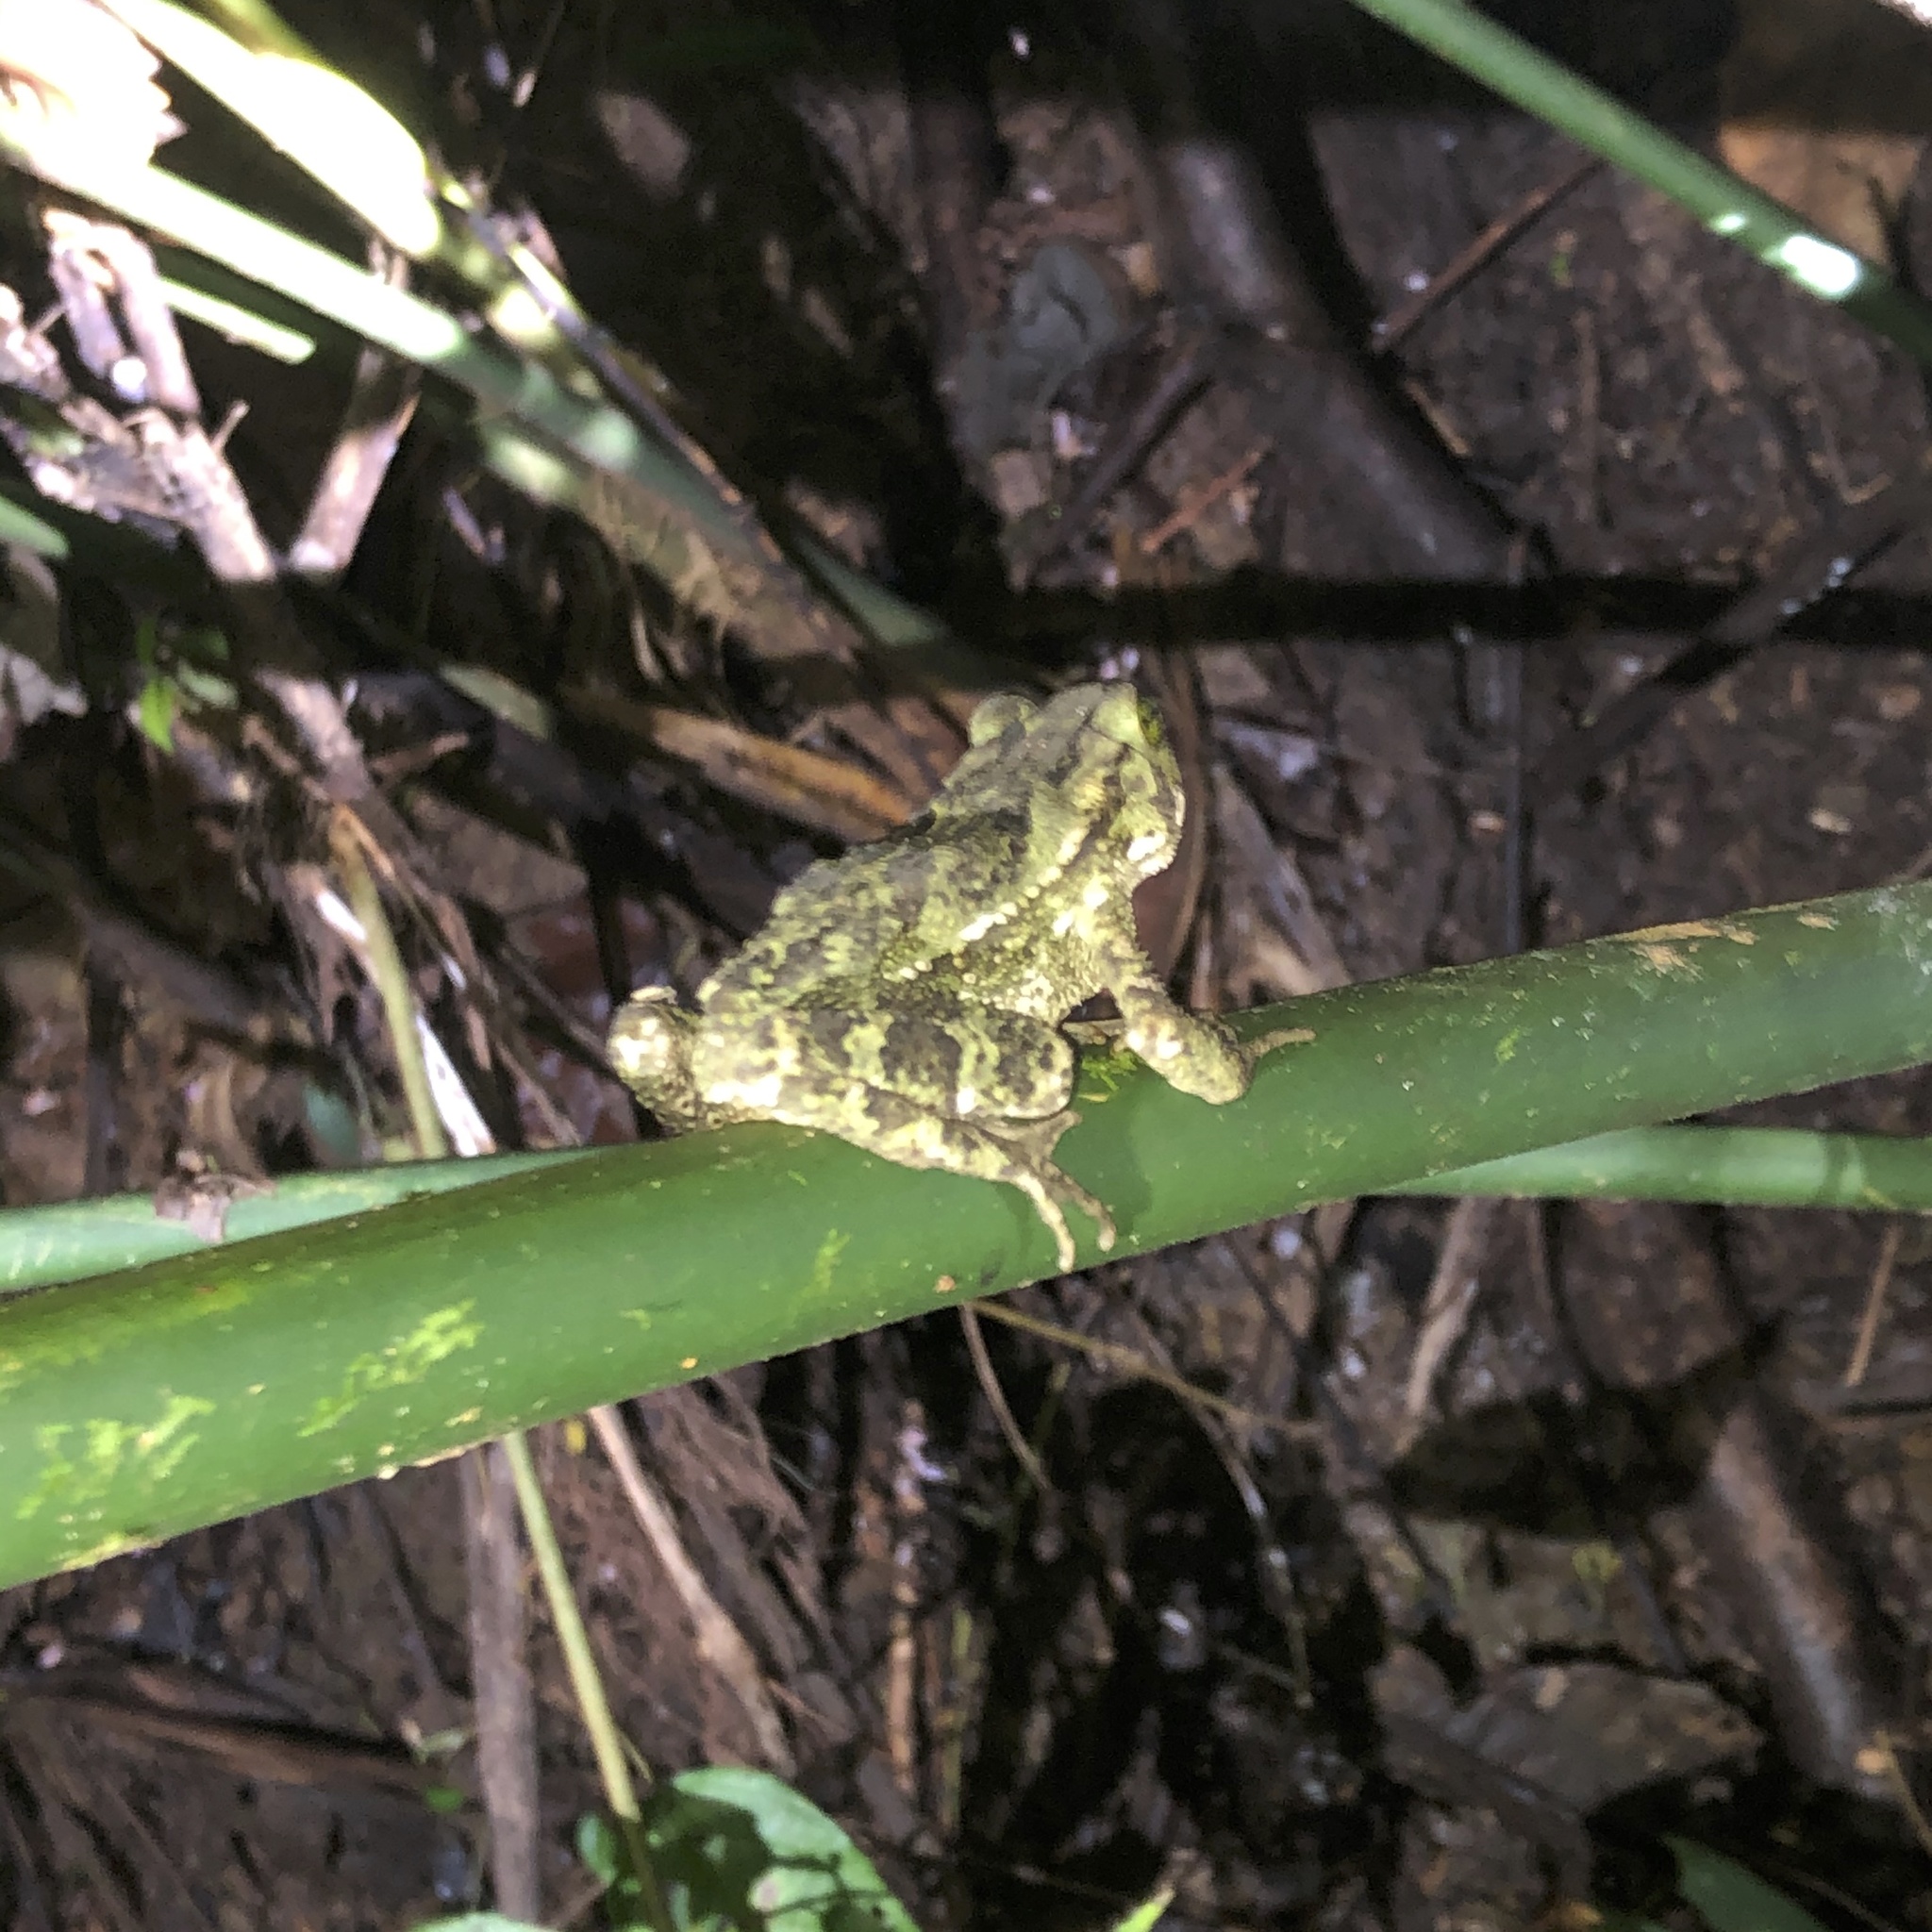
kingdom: Animalia
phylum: Chordata
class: Amphibia
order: Anura
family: Bufonidae
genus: Incilius
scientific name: Incilius coniferus
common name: Evergreen toad
